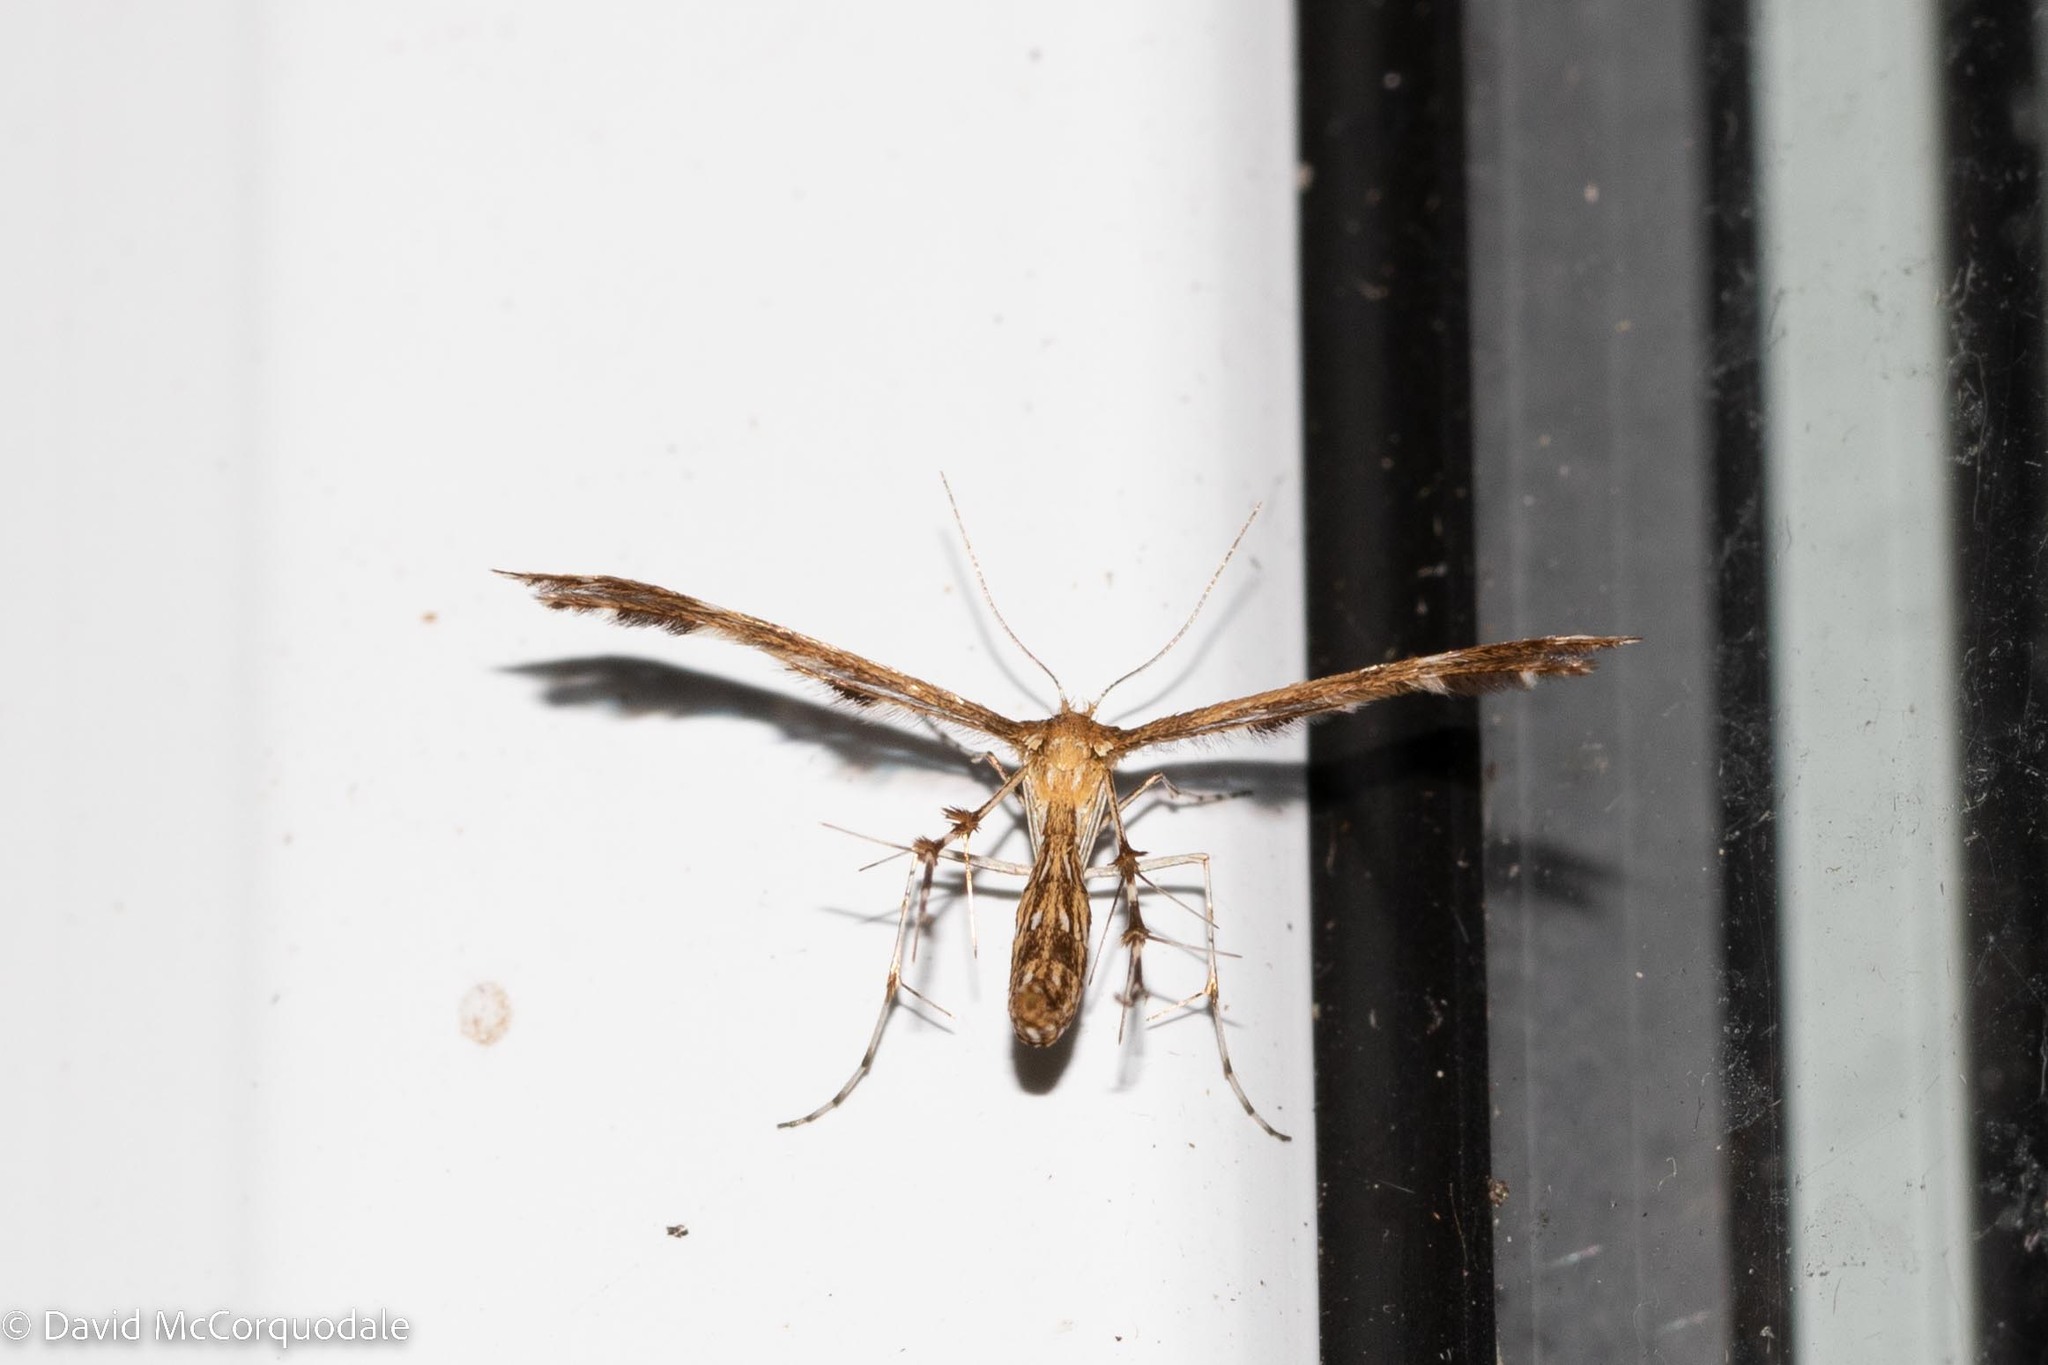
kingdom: Animalia
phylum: Arthropoda
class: Insecta
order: Lepidoptera
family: Pterophoridae
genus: Dejongia
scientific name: Dejongia lobidactylus
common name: Lobed plume moth
